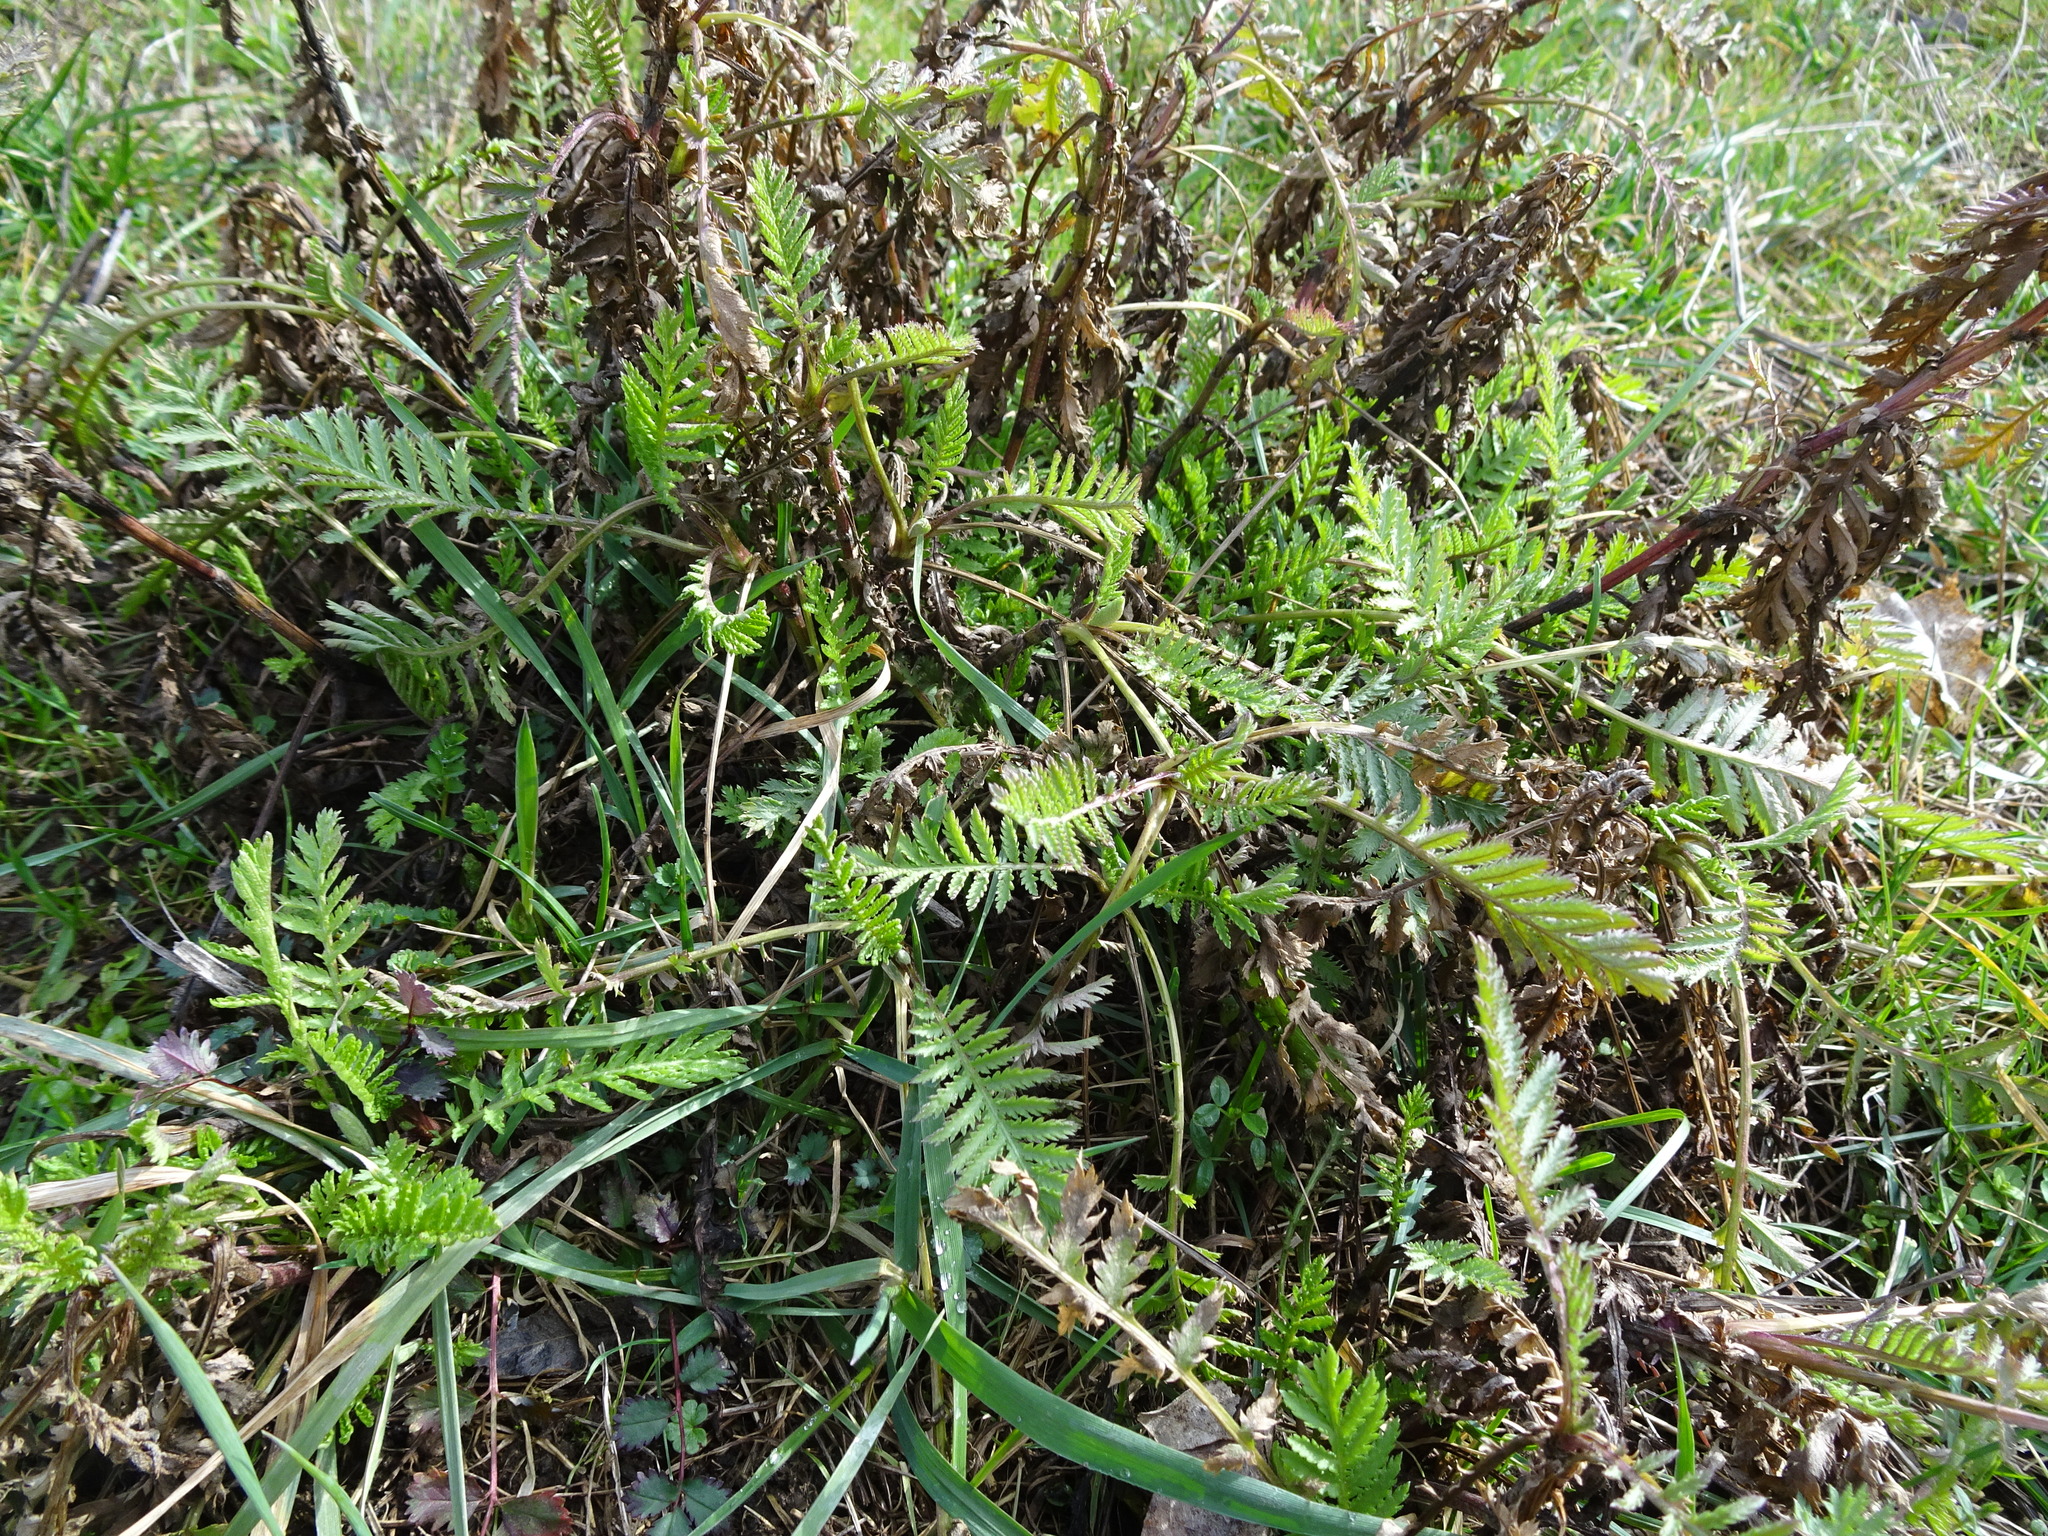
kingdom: Plantae
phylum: Tracheophyta
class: Magnoliopsida
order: Asterales
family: Asteraceae
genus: Tanacetum
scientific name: Tanacetum vulgare
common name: Common tansy
